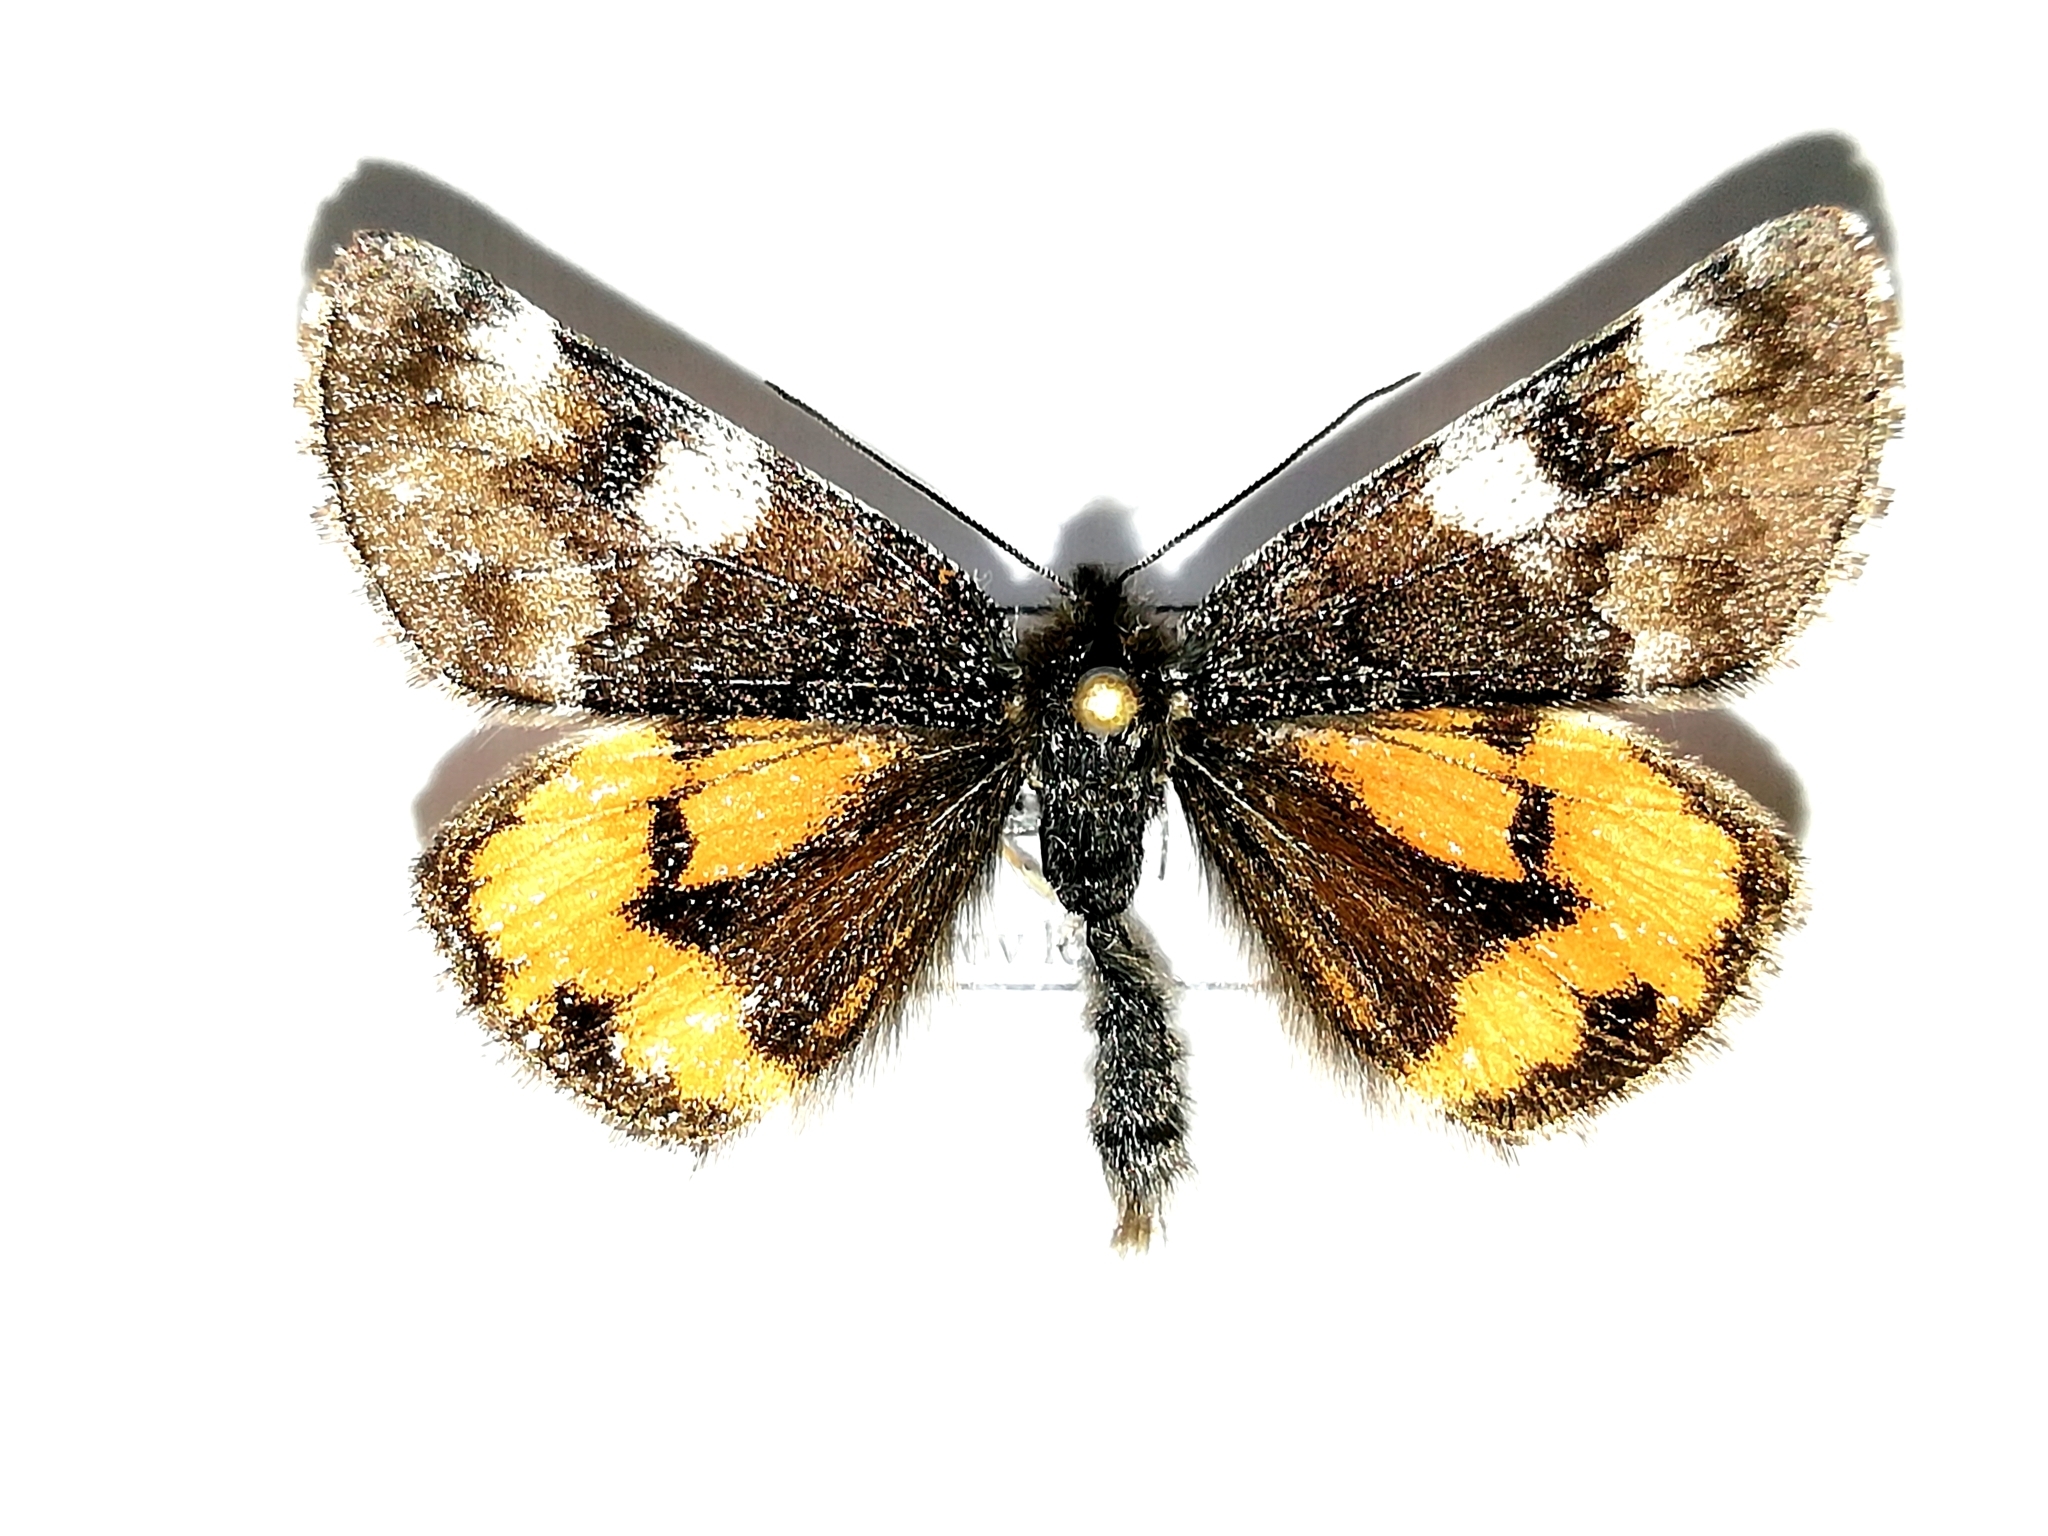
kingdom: Animalia
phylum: Arthropoda
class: Insecta
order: Lepidoptera
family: Geometridae
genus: Archiearis
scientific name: Archiearis parthenias
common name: Orange underwing
